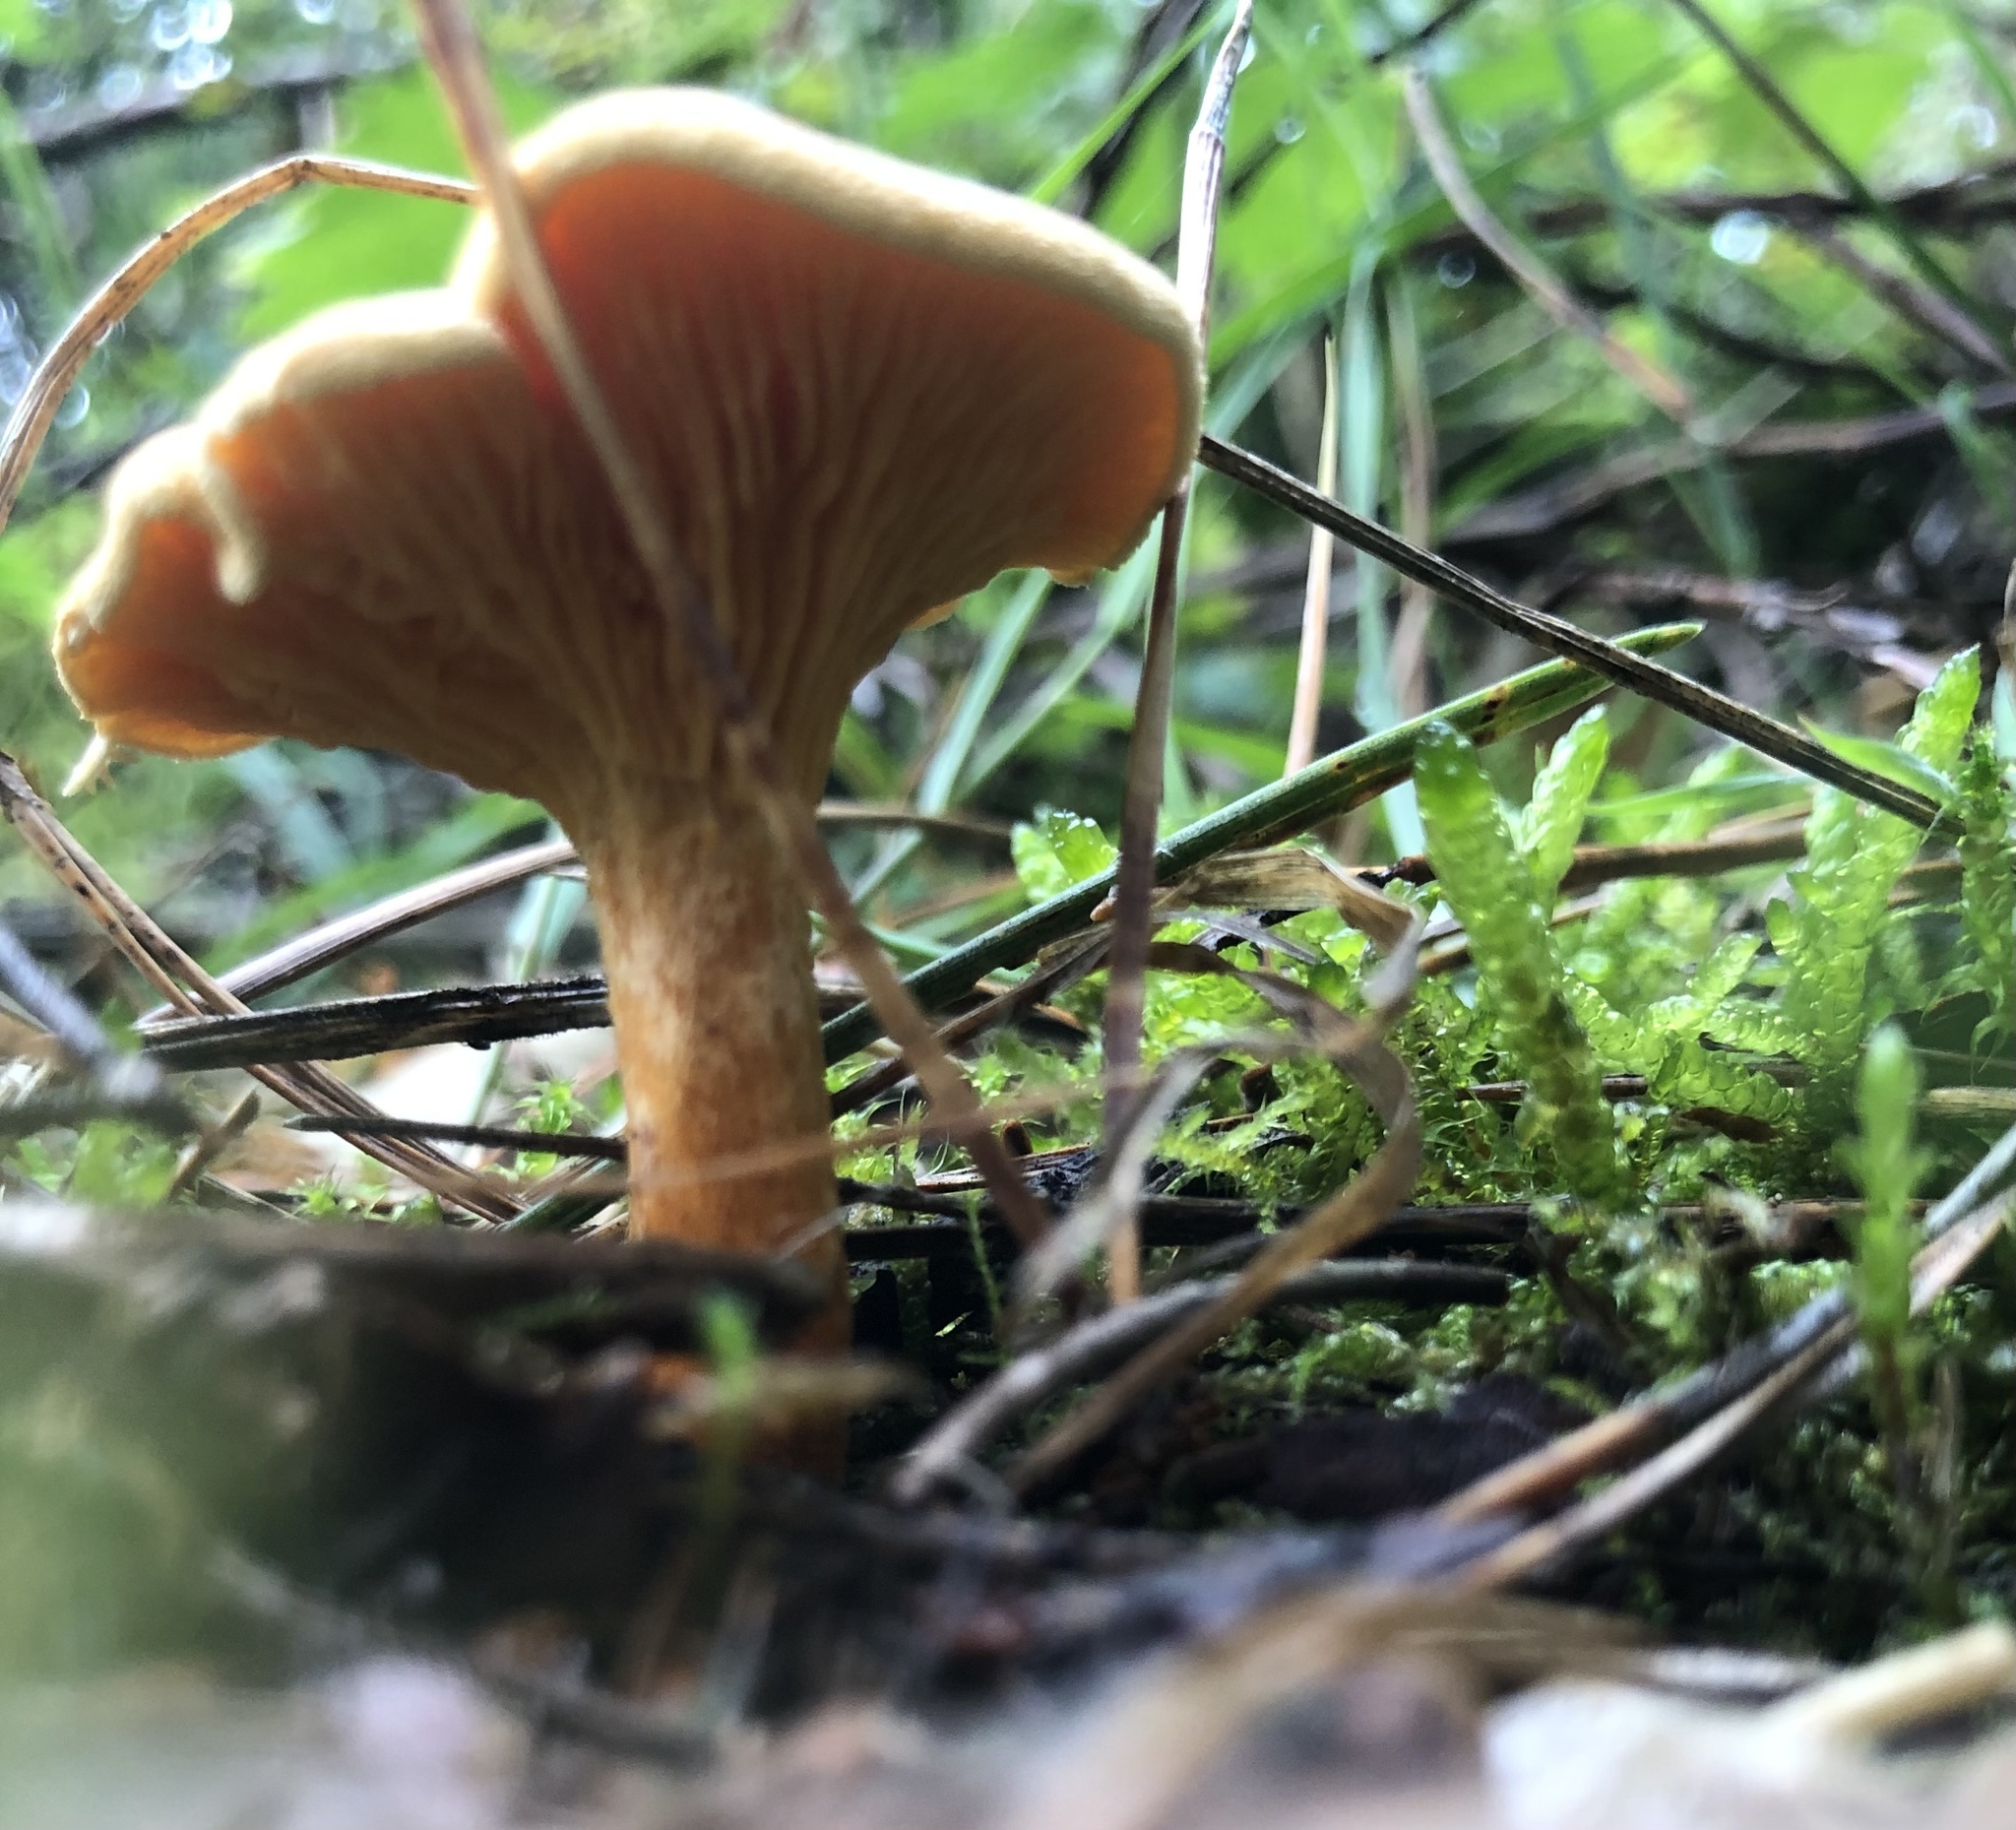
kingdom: Fungi
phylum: Basidiomycota
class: Agaricomycetes
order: Boletales
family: Hygrophoropsidaceae
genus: Hygrophoropsis
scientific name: Hygrophoropsis aurantiaca
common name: False chanterelle
